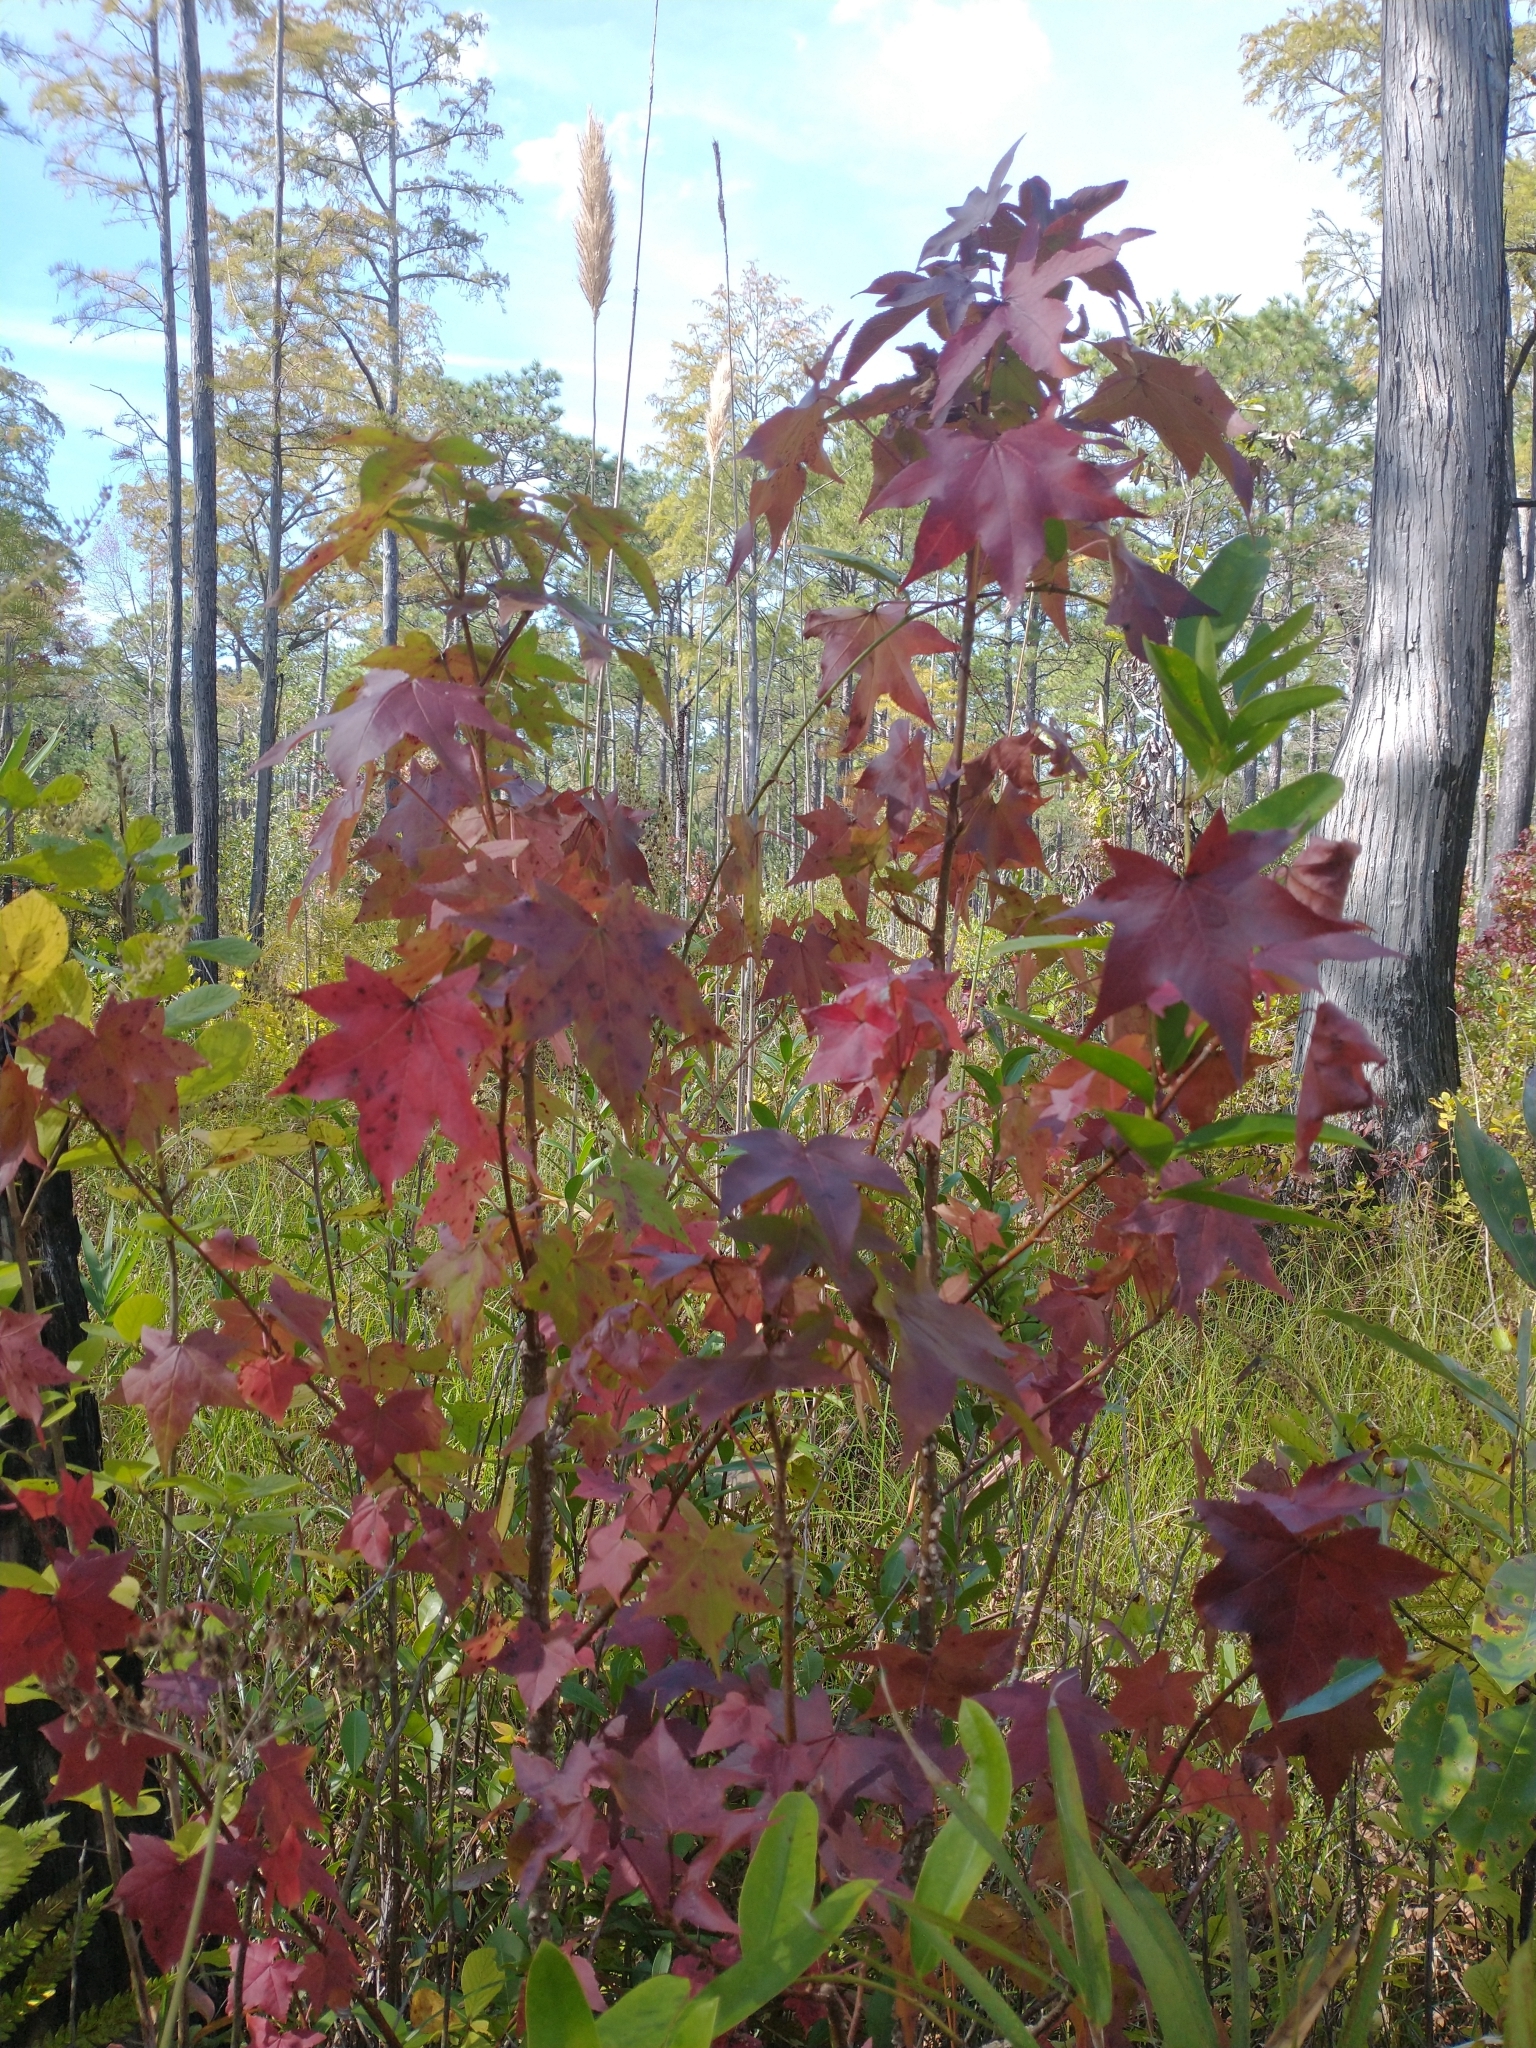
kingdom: Plantae
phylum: Tracheophyta
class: Magnoliopsida
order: Saxifragales
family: Altingiaceae
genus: Liquidambar
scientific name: Liquidambar styraciflua
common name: Sweet gum
